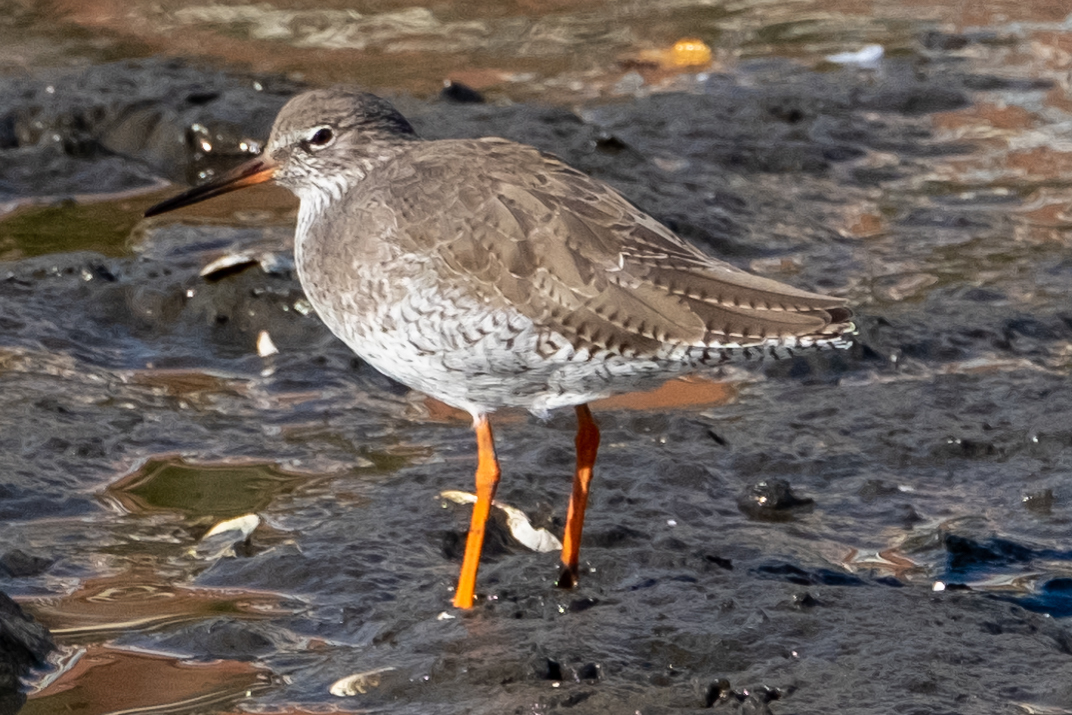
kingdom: Animalia
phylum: Chordata
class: Aves
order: Charadriiformes
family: Scolopacidae
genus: Tringa
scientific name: Tringa totanus
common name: Common redshank
